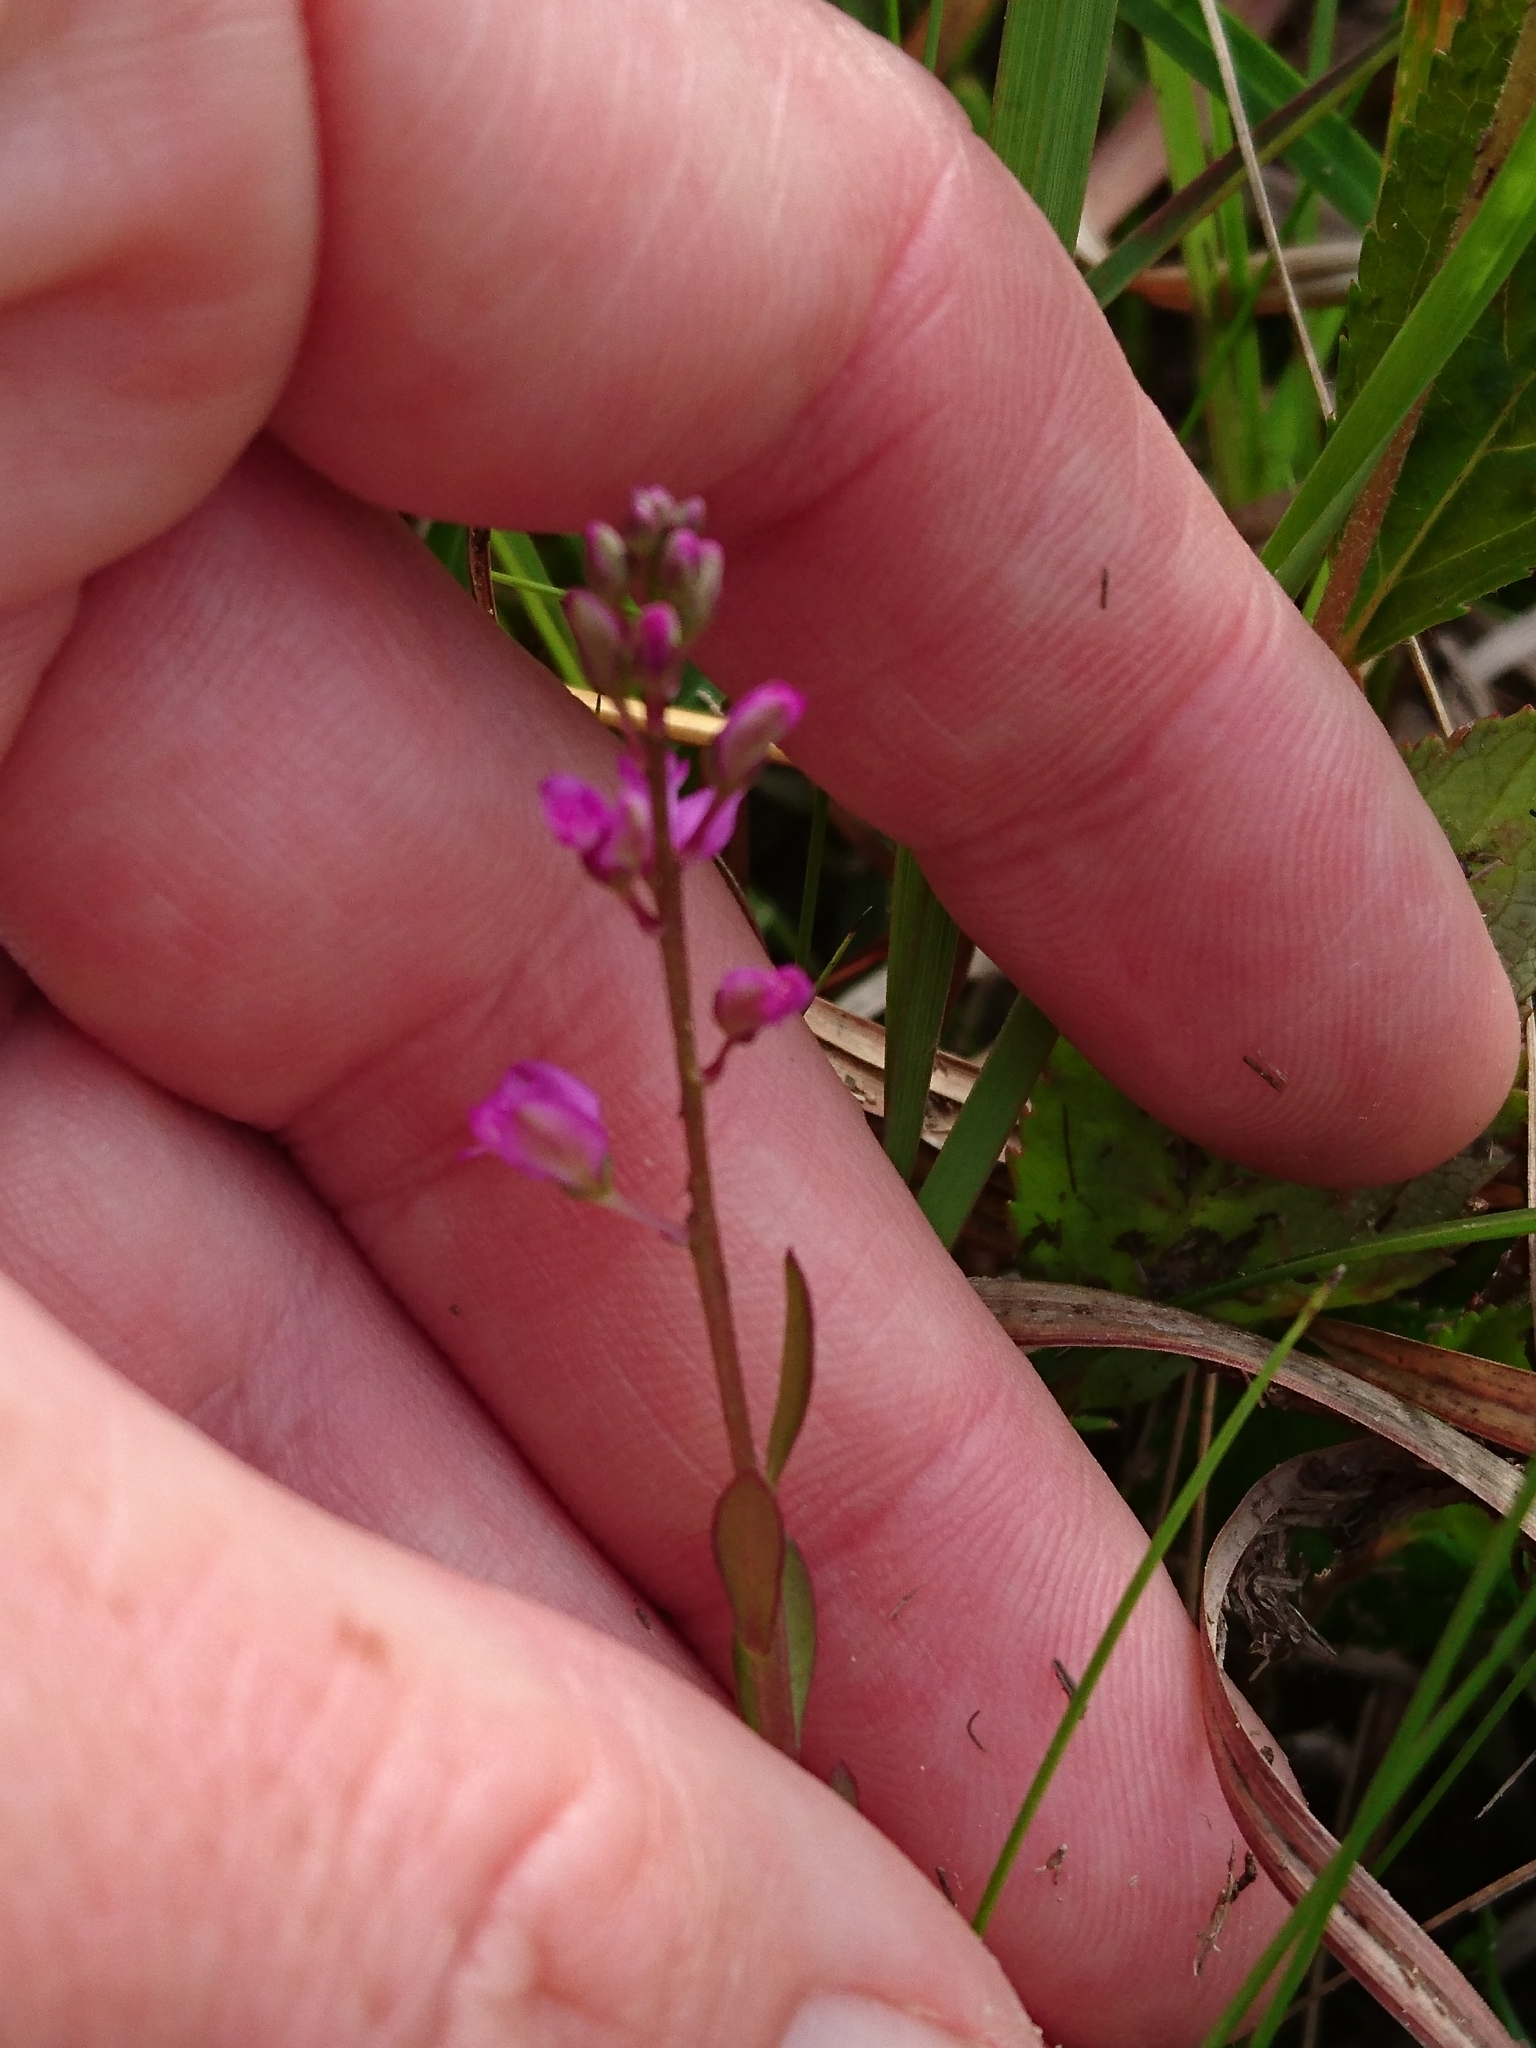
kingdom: Plantae
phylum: Tracheophyta
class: Magnoliopsida
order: Fabales
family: Polygalaceae
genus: Polygala
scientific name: Polygala crenata
